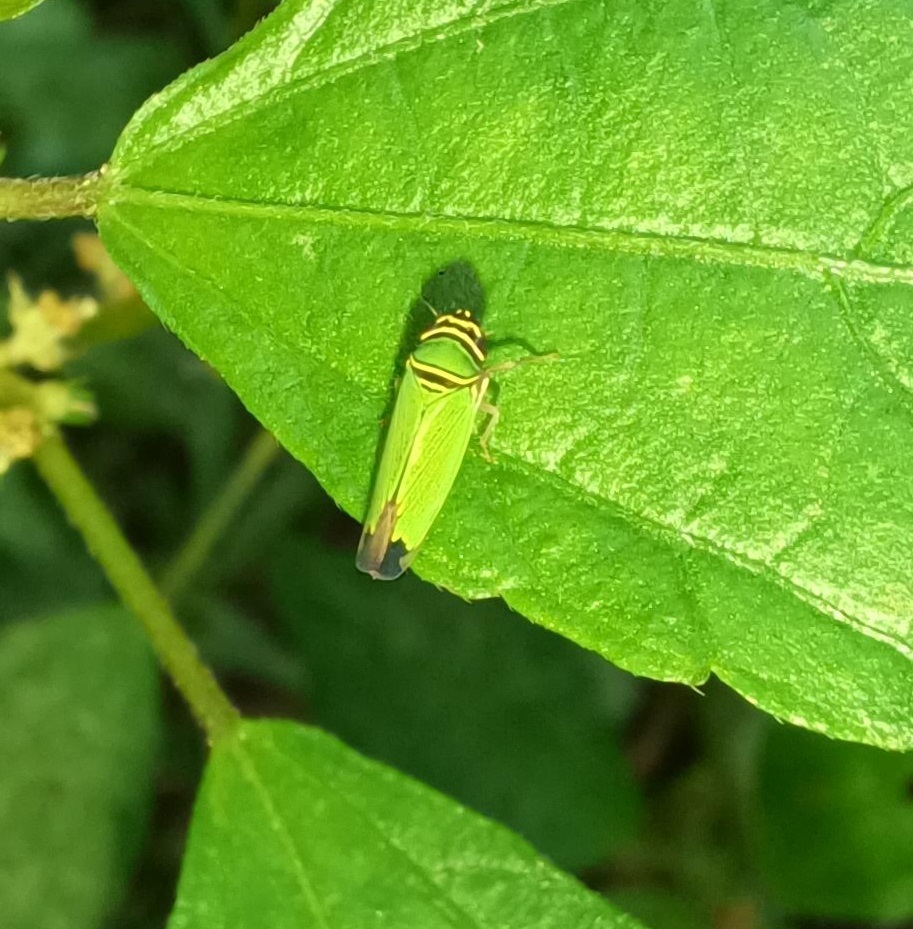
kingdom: Animalia
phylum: Arthropoda
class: Insecta
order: Hemiptera
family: Cicadellidae
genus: Tylozygus
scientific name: Tylozygus geometricus
